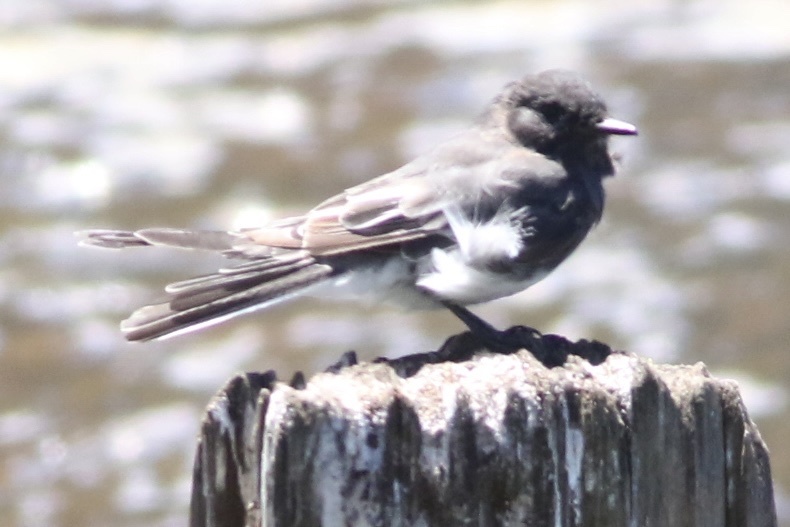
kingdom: Animalia
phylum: Chordata
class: Aves
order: Passeriformes
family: Tyrannidae
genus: Sayornis
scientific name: Sayornis nigricans
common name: Black phoebe
